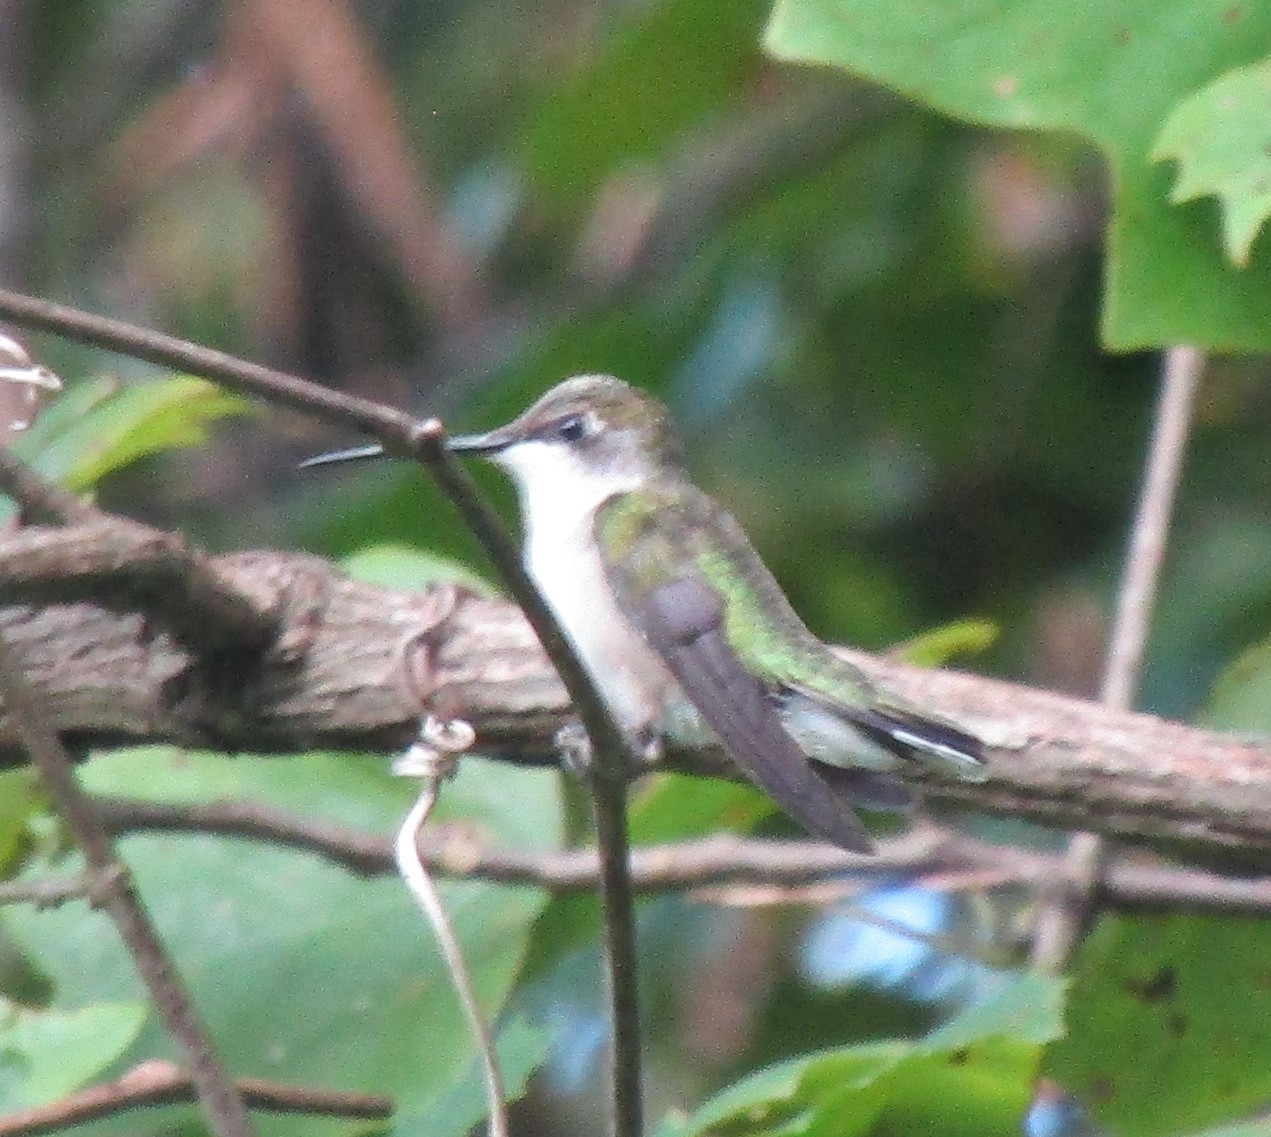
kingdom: Animalia
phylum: Chordata
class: Aves
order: Apodiformes
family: Trochilidae
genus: Archilochus
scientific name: Archilochus colubris
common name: Ruby-throated hummingbird
